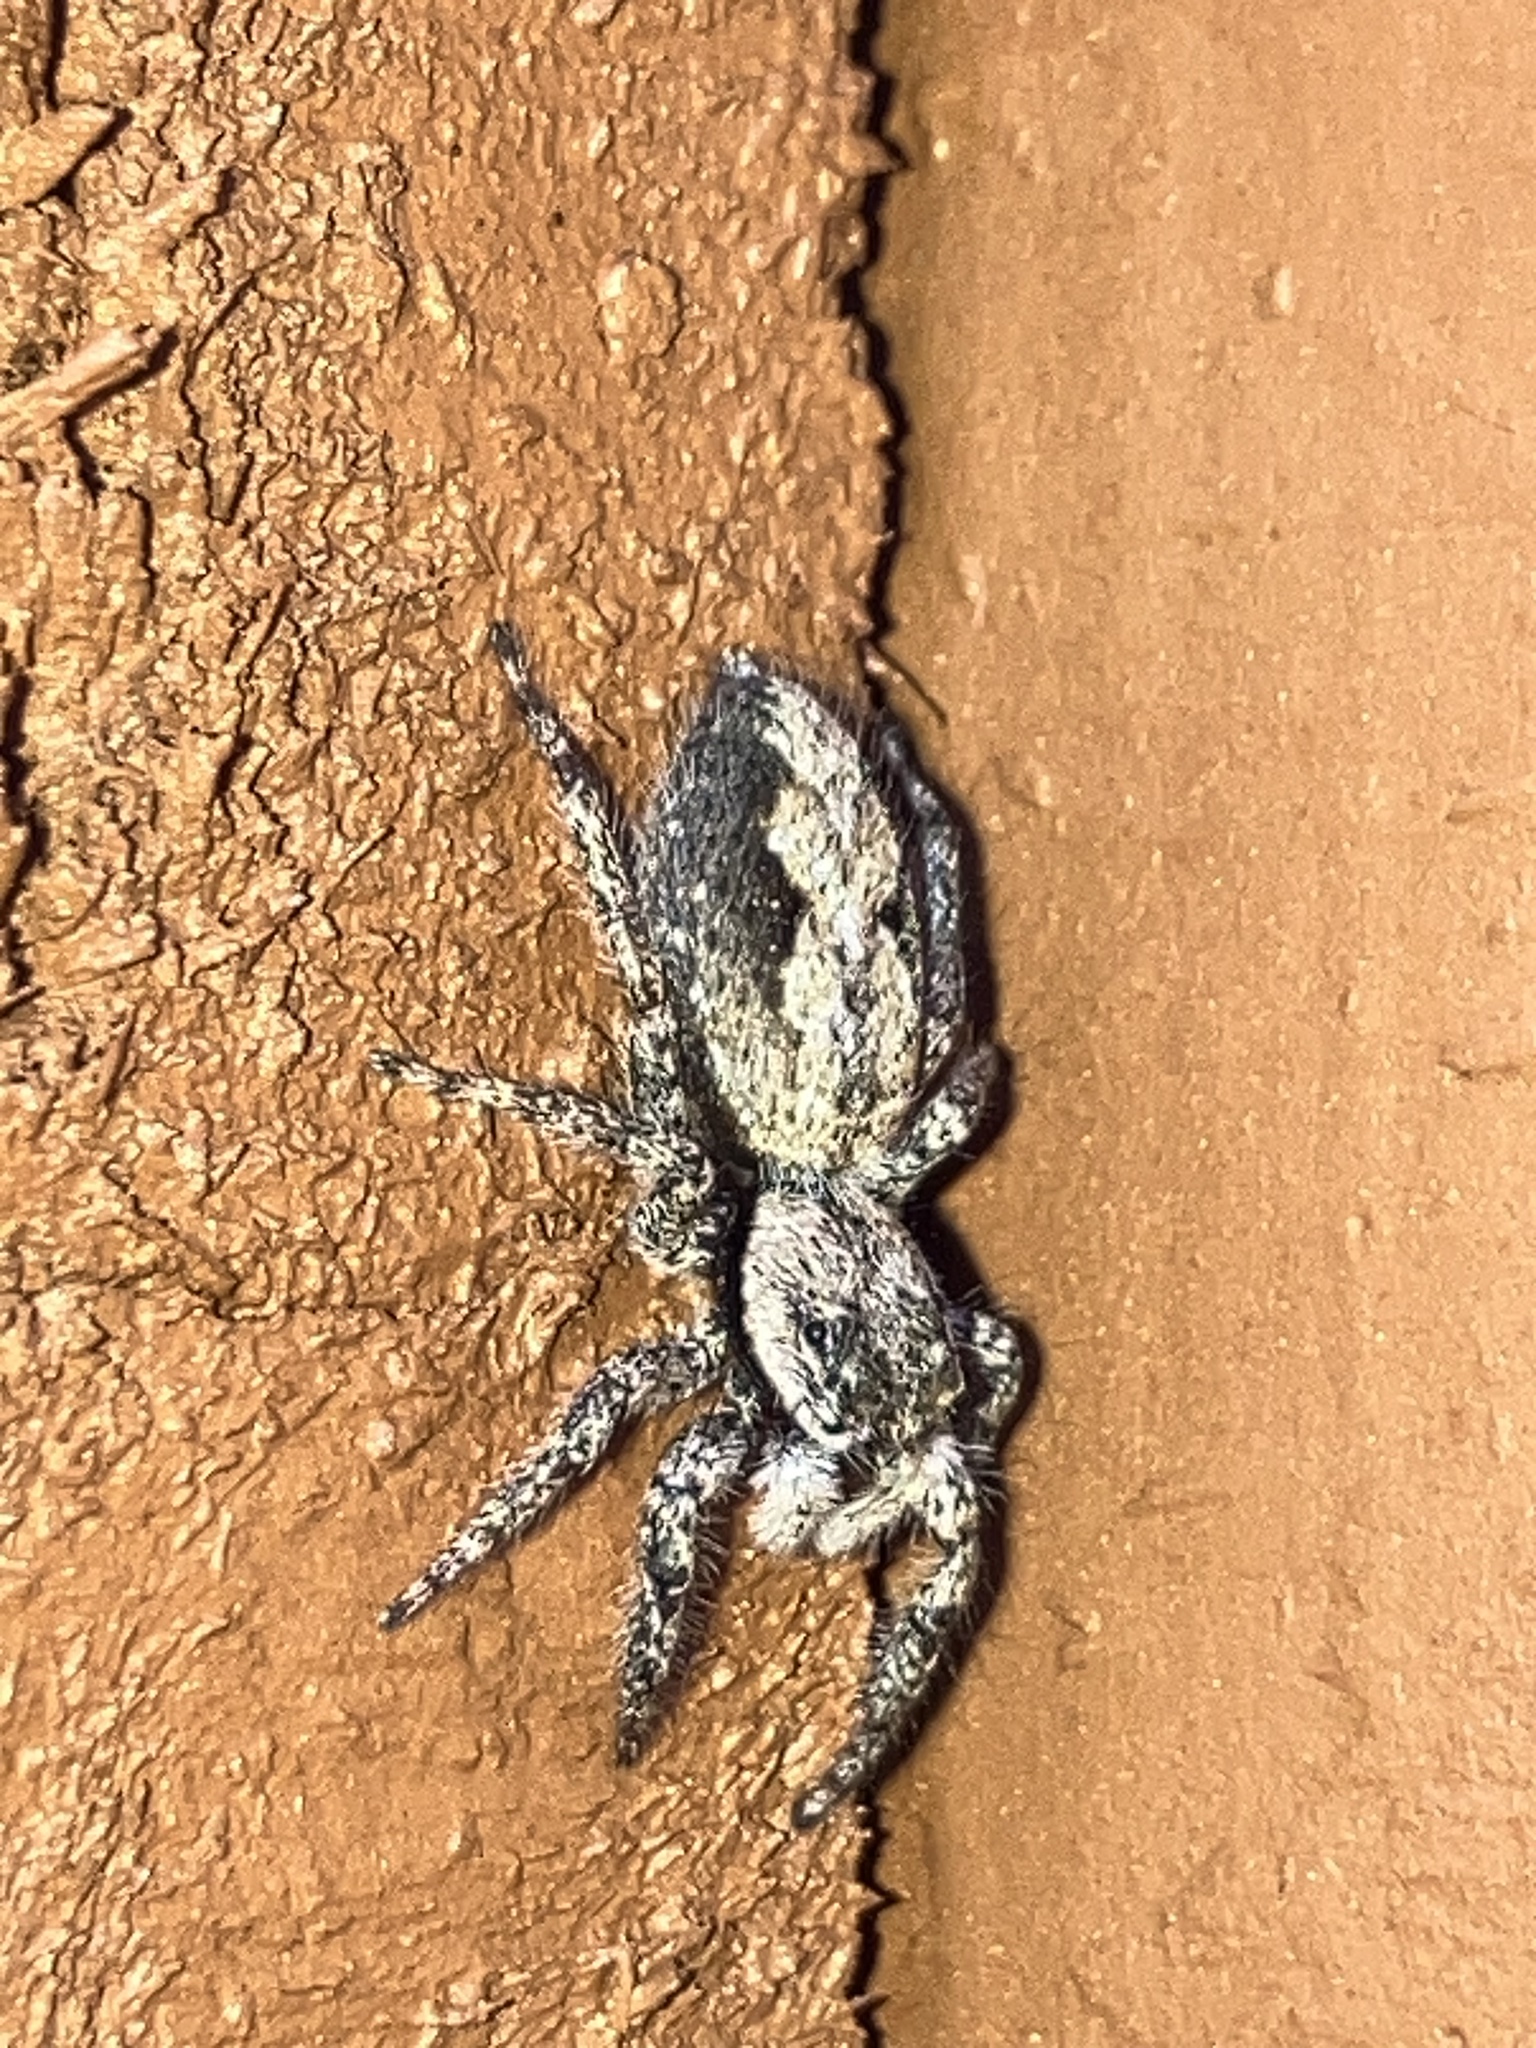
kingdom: Animalia
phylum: Arthropoda
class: Arachnida
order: Araneae
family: Salticidae
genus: Platycryptus
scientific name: Platycryptus undatus
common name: Tan jumping spider
